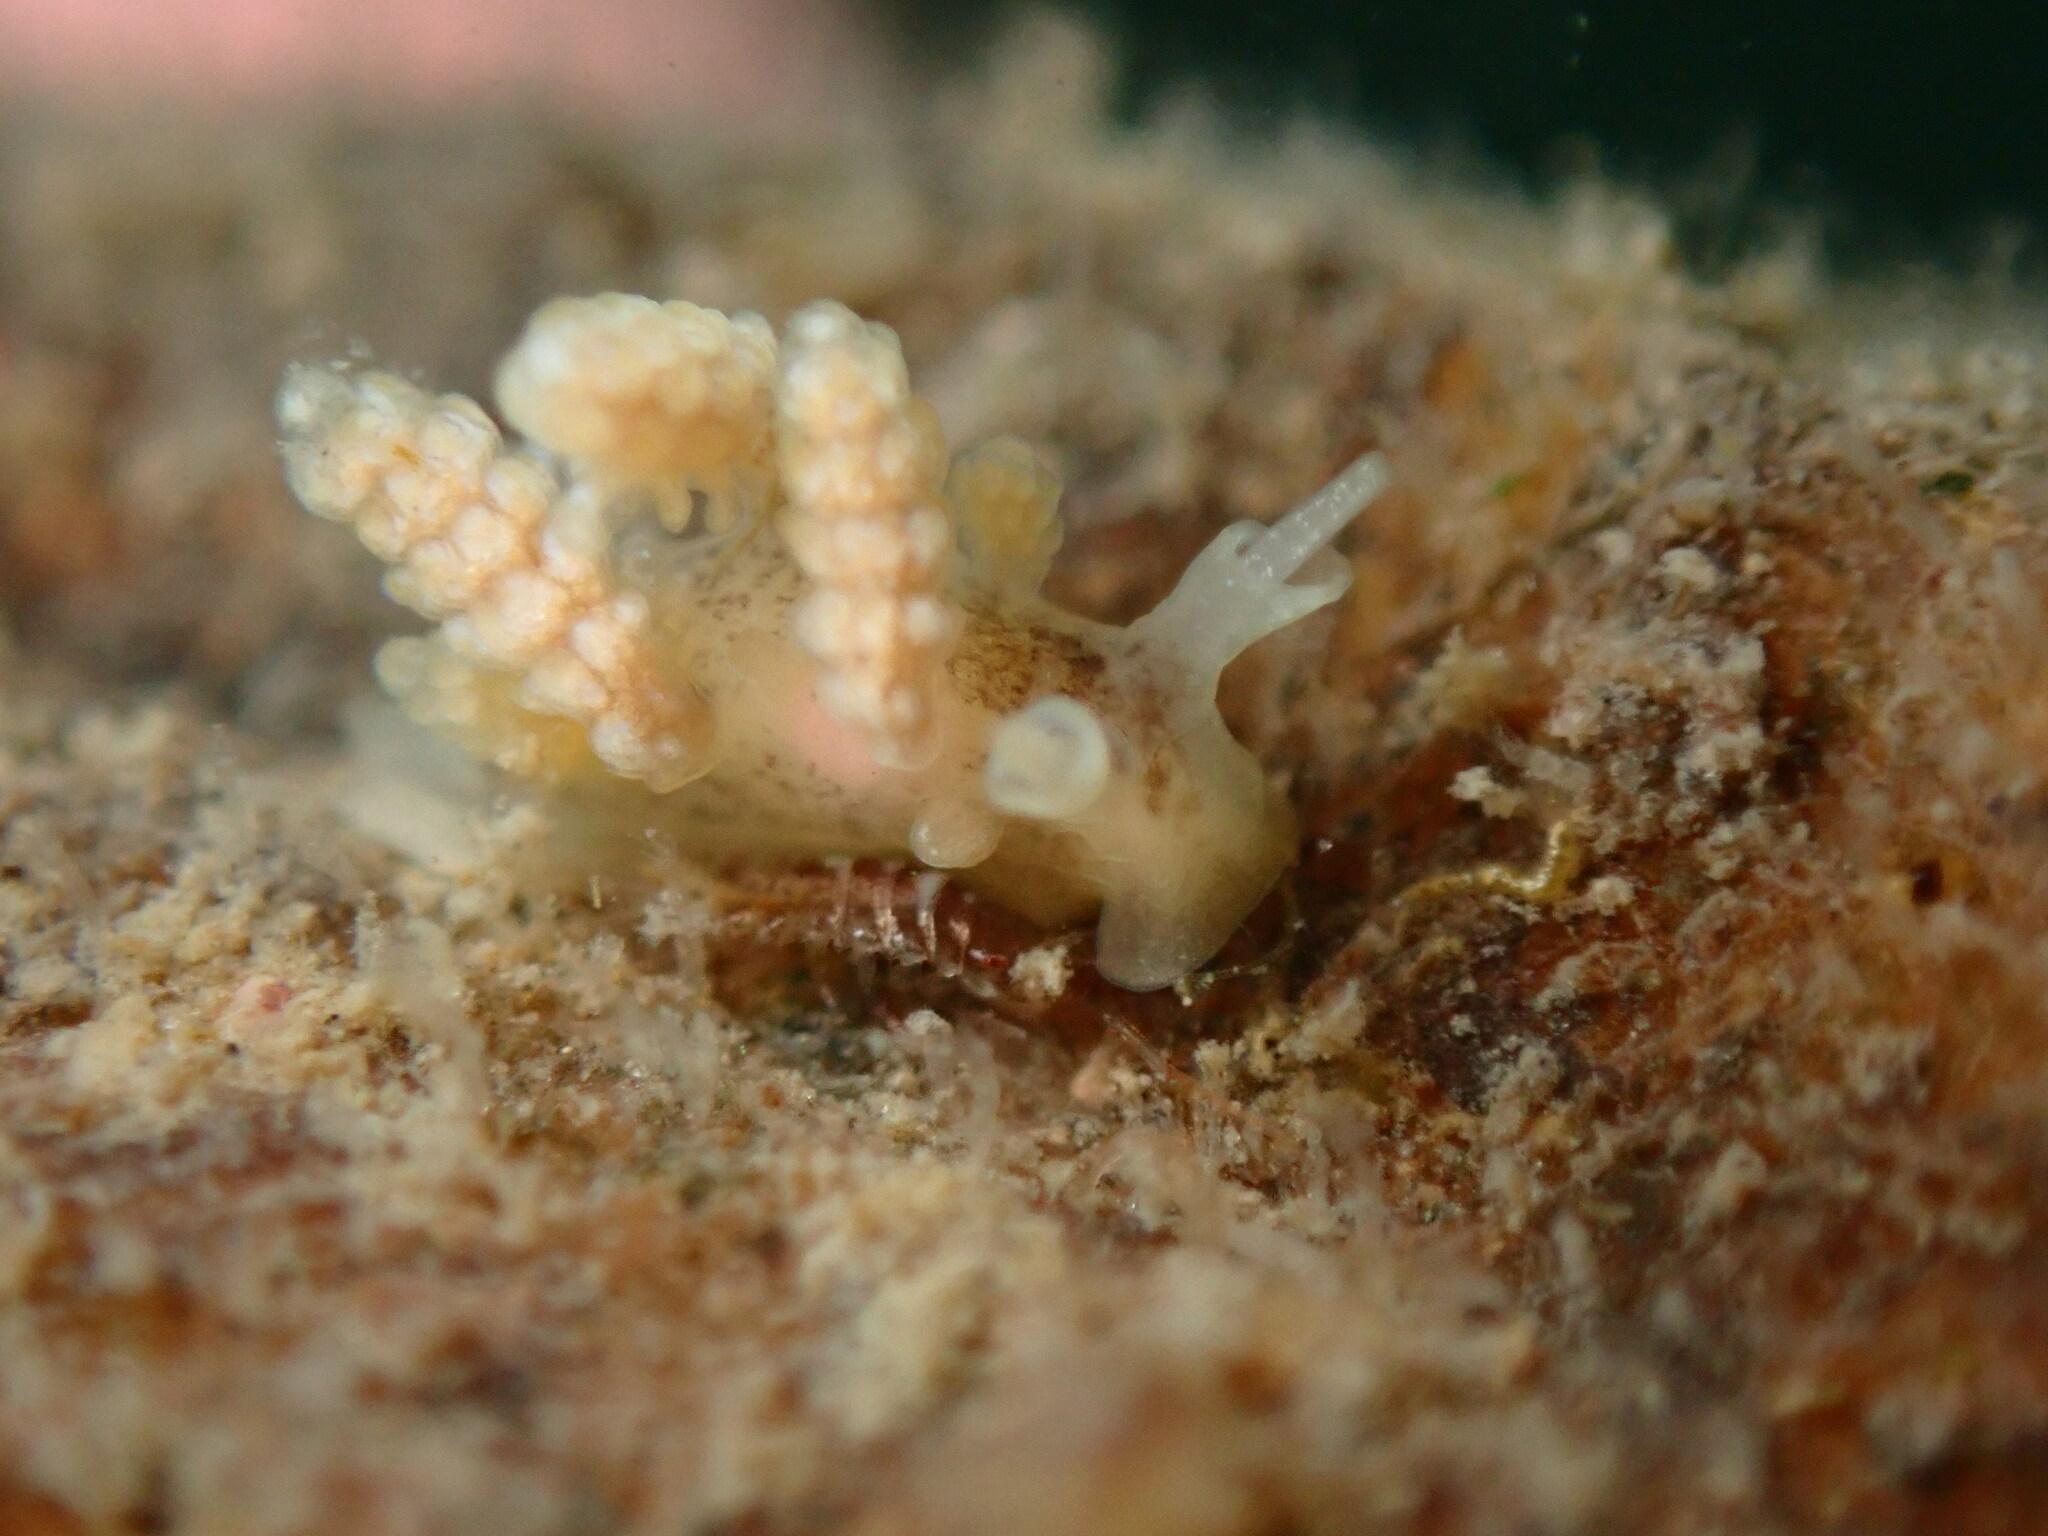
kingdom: Animalia
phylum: Mollusca
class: Gastropoda
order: Nudibranchia
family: Dotidae
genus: Doto
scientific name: Doto columbiana
